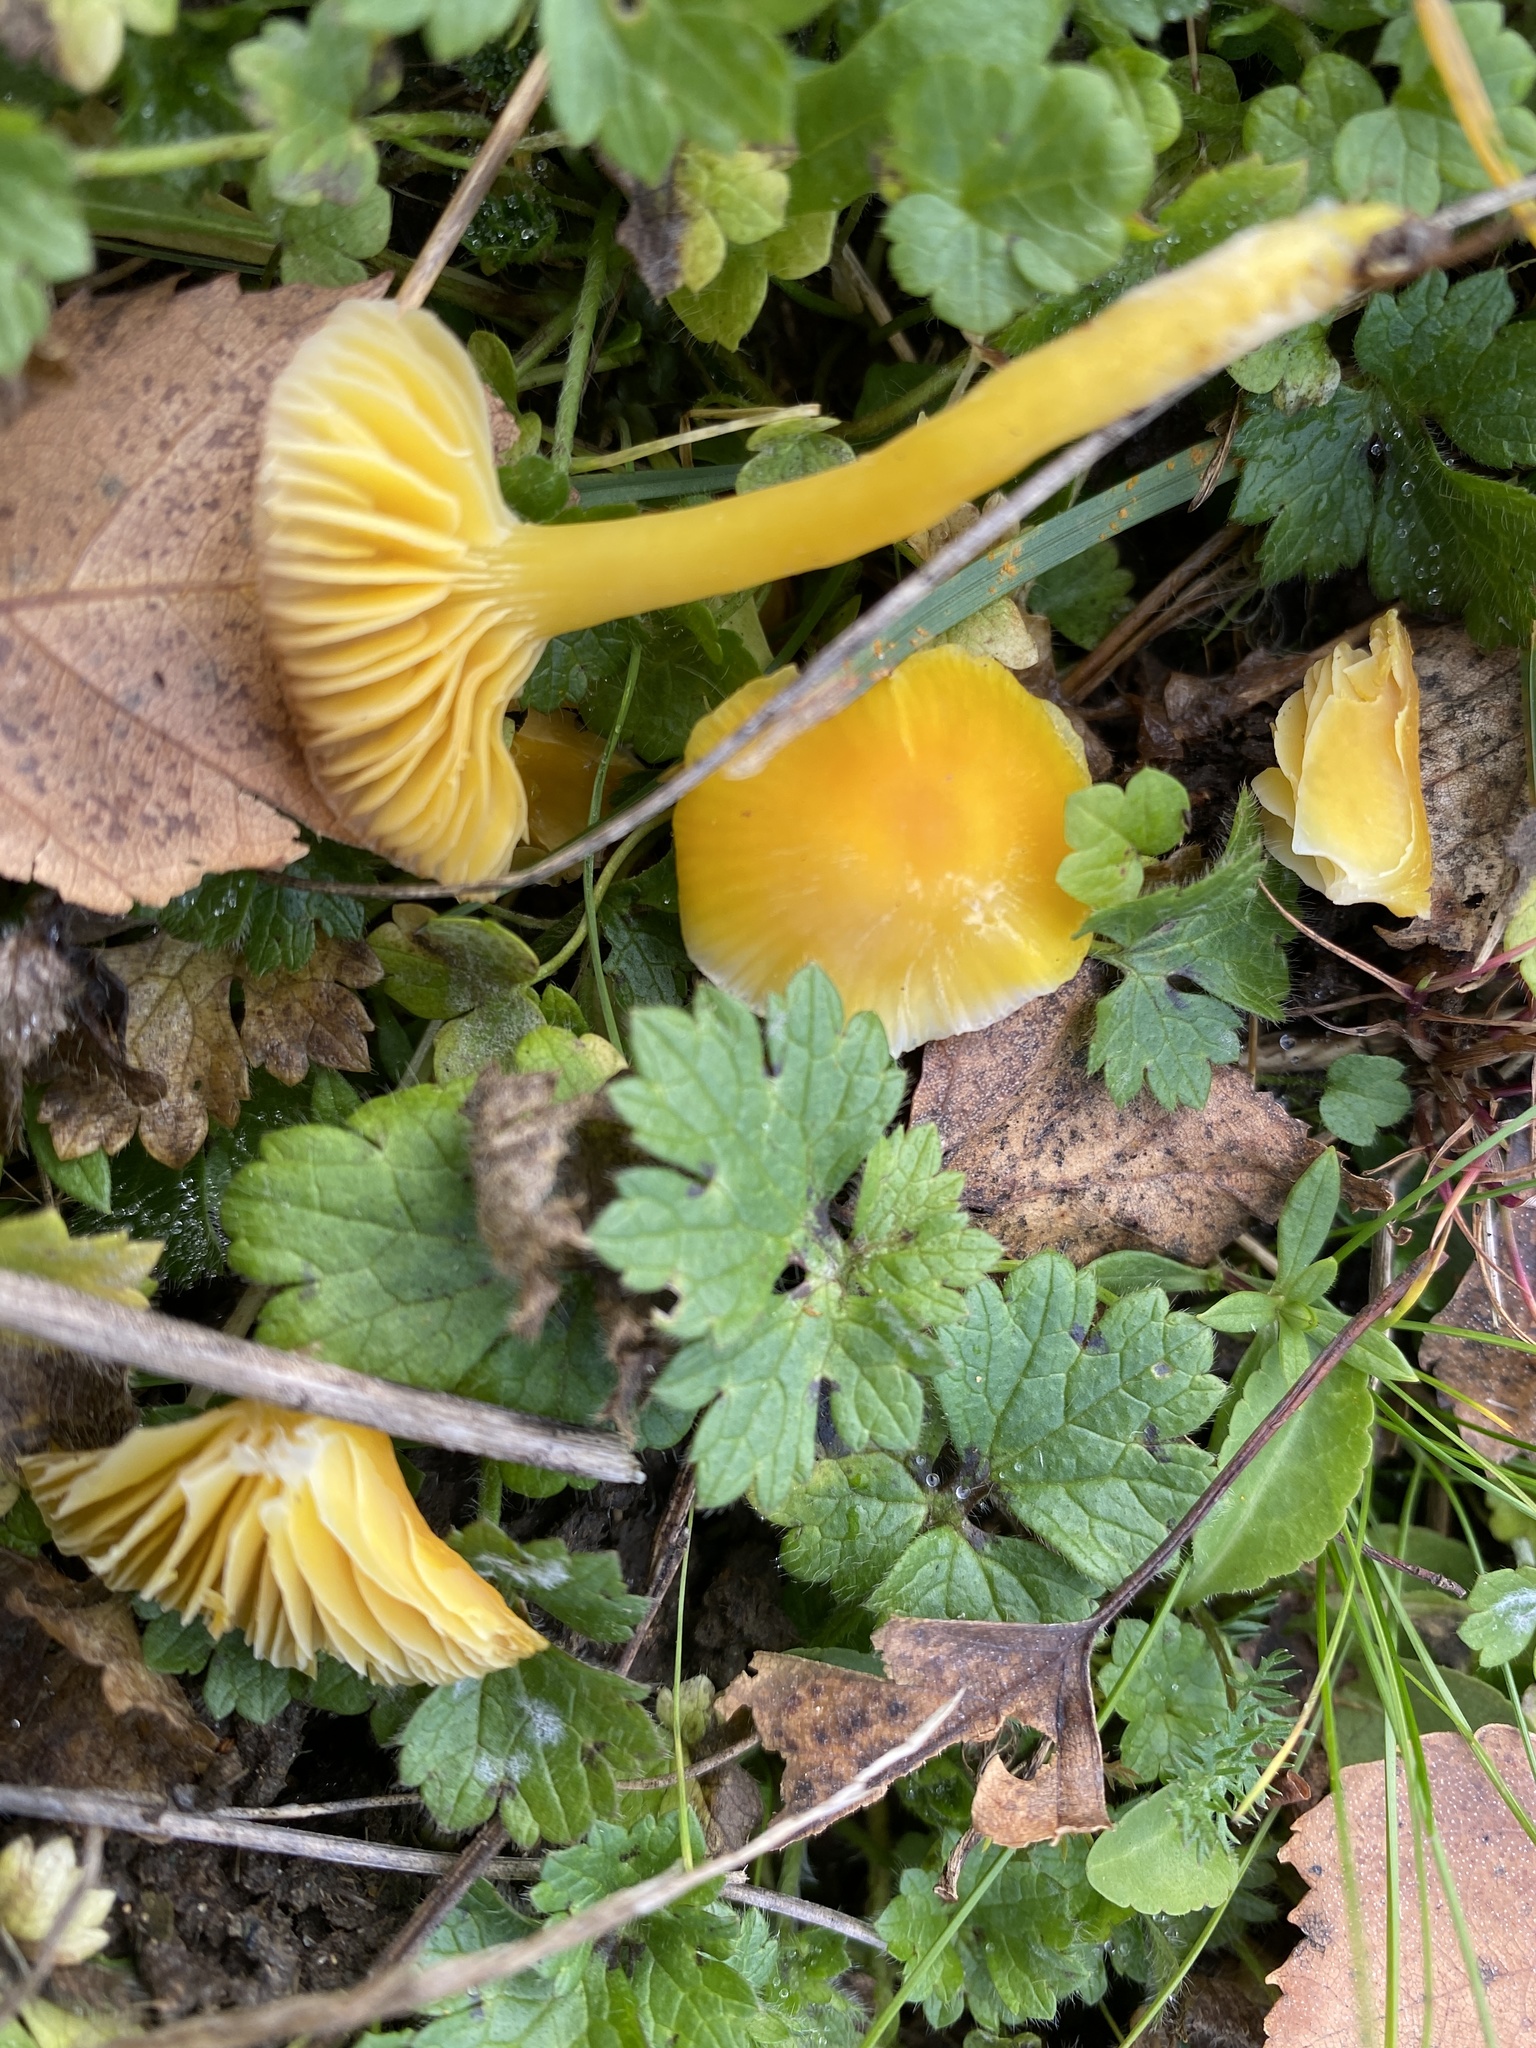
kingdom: Fungi
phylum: Basidiomycota
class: Agaricomycetes
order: Agaricales
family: Hygrophoraceae
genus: Hygrocybe
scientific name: Hygrocybe ceracea
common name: Butter waxcap
